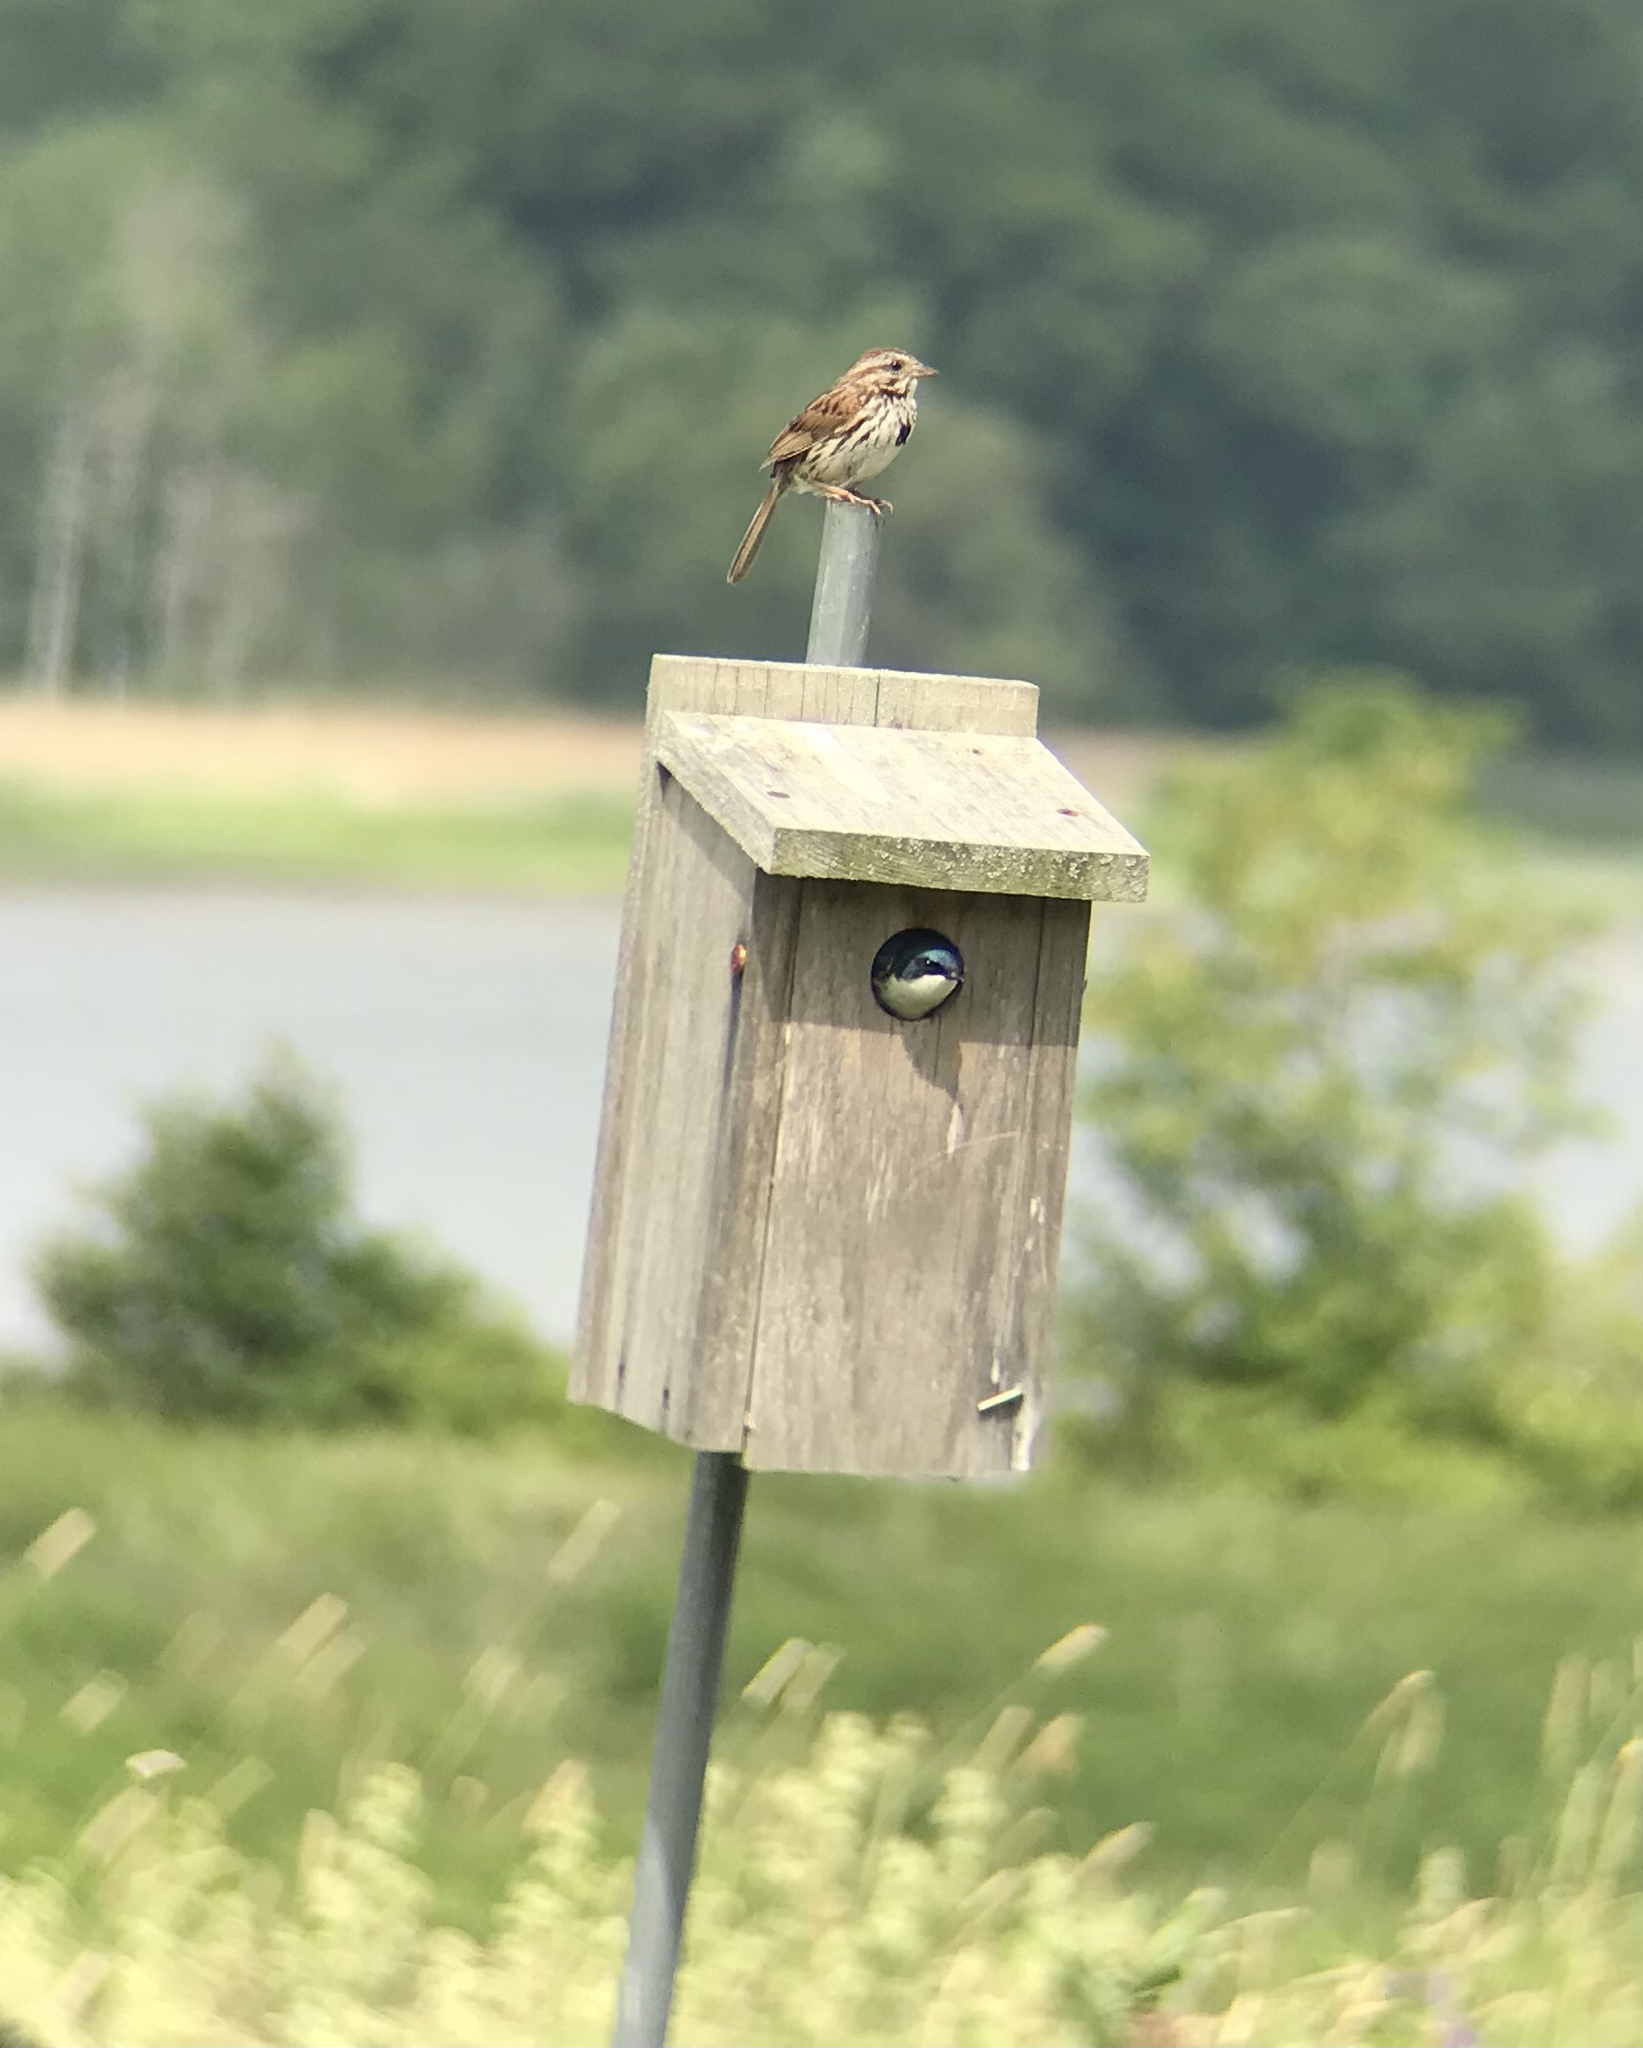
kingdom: Animalia
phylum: Chordata
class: Aves
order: Passeriformes
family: Passerellidae
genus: Melospiza
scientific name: Melospiza melodia
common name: Song sparrow
